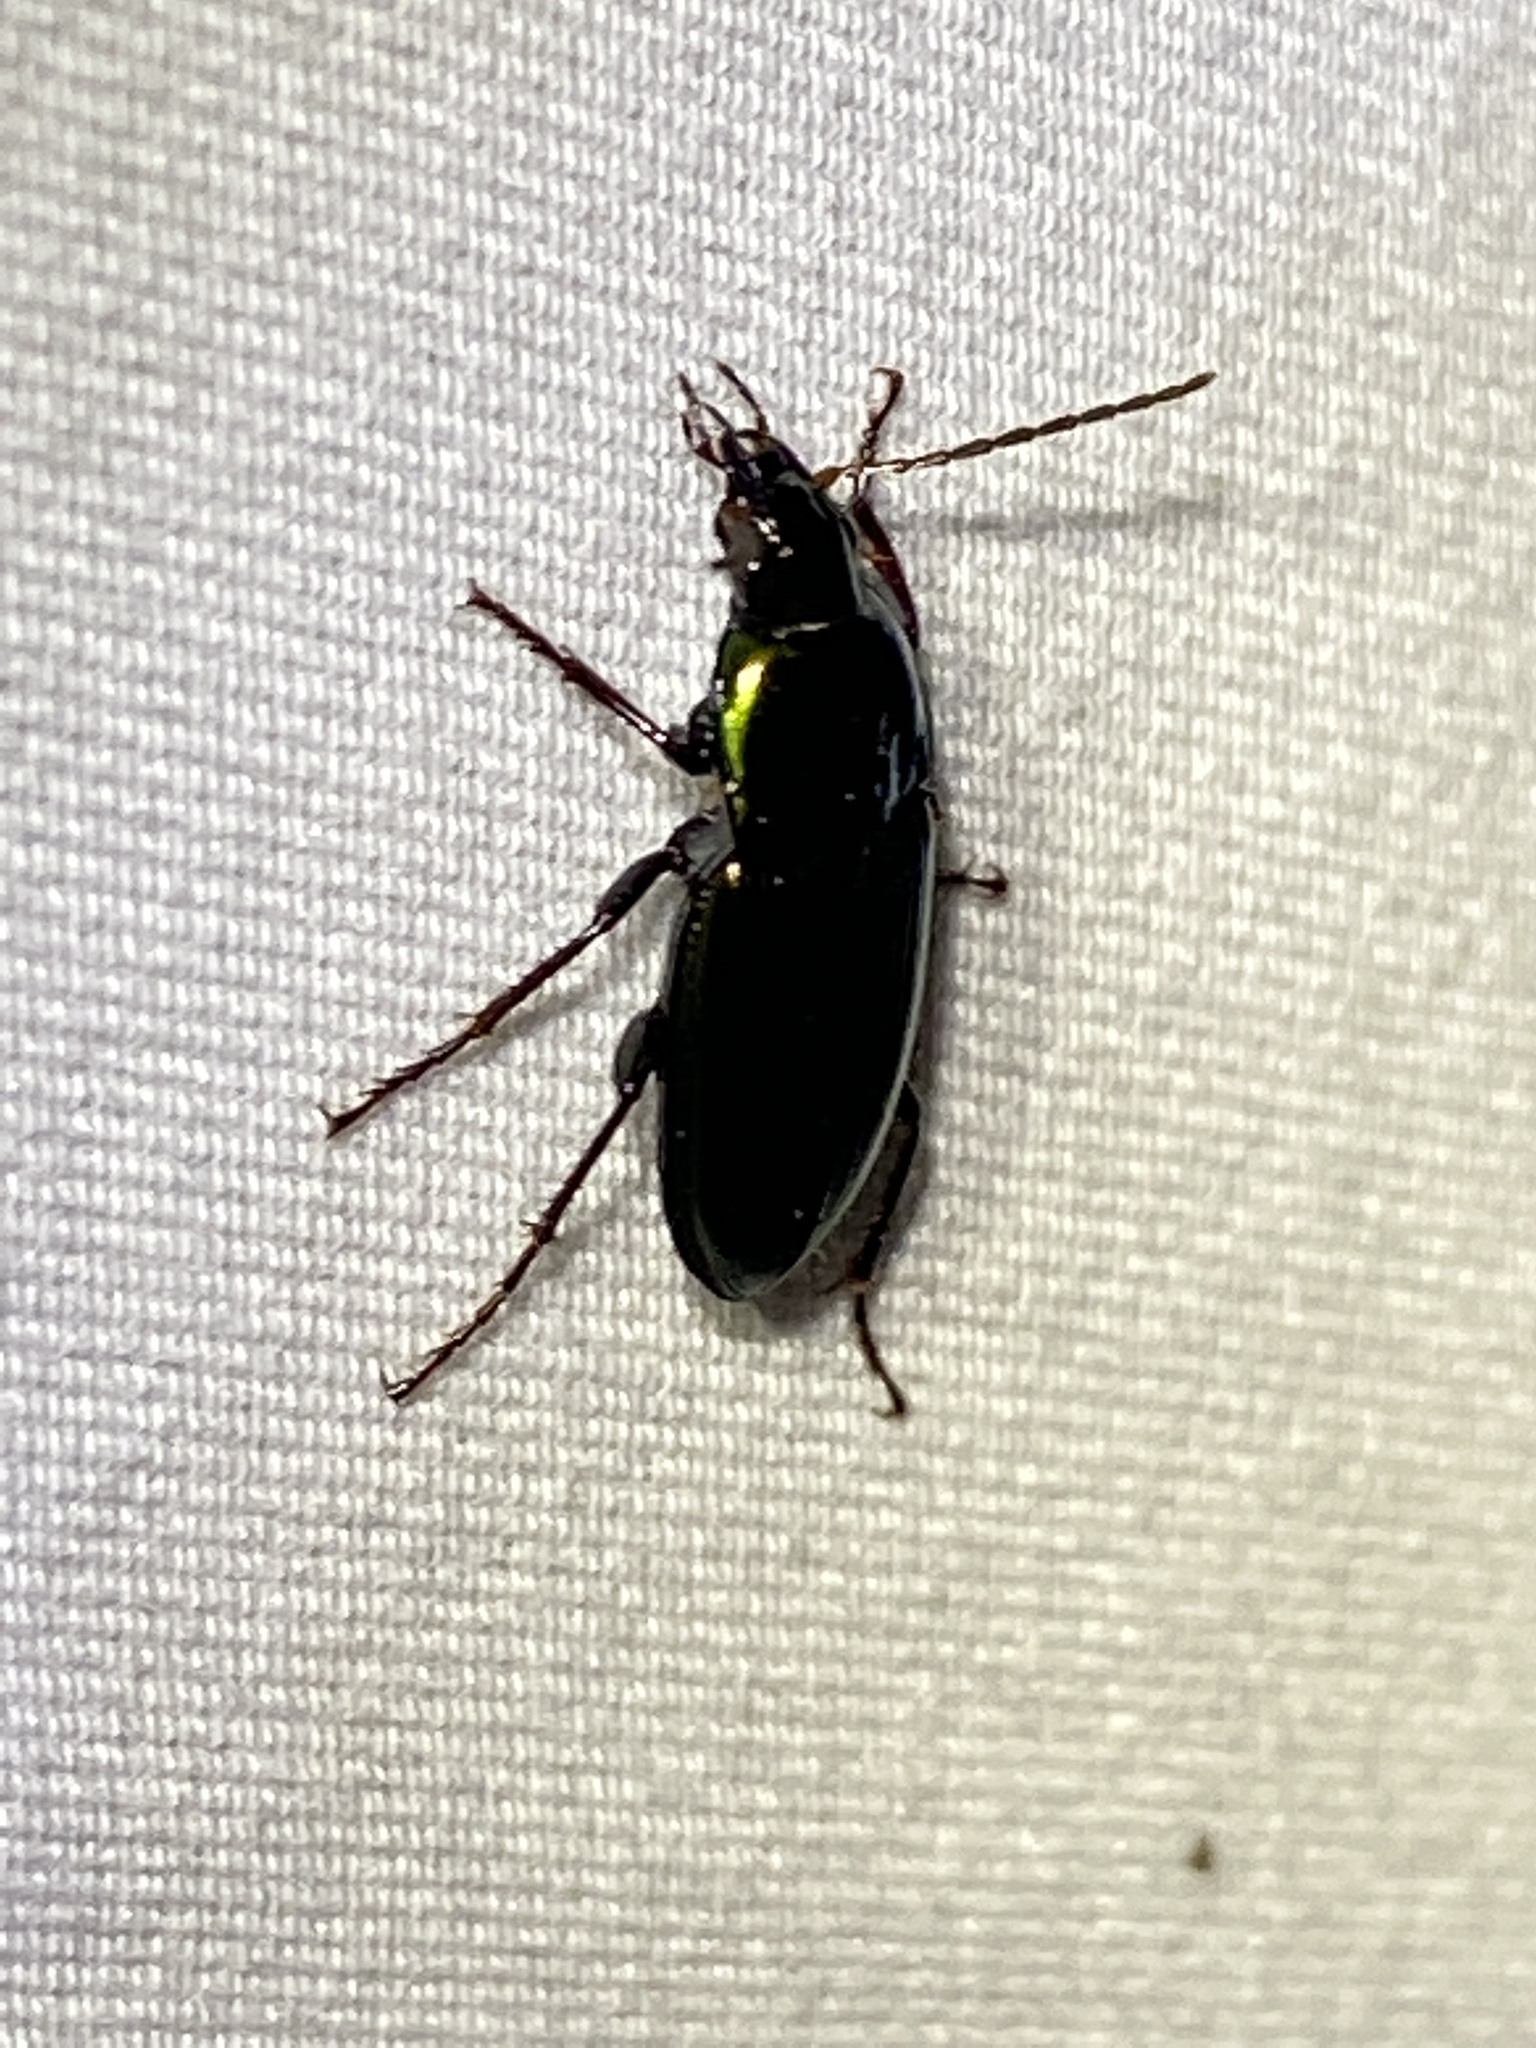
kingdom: Animalia
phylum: Arthropoda
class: Insecta
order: Coleoptera
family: Carabidae
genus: Poecilus
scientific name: Poecilus chalcites
